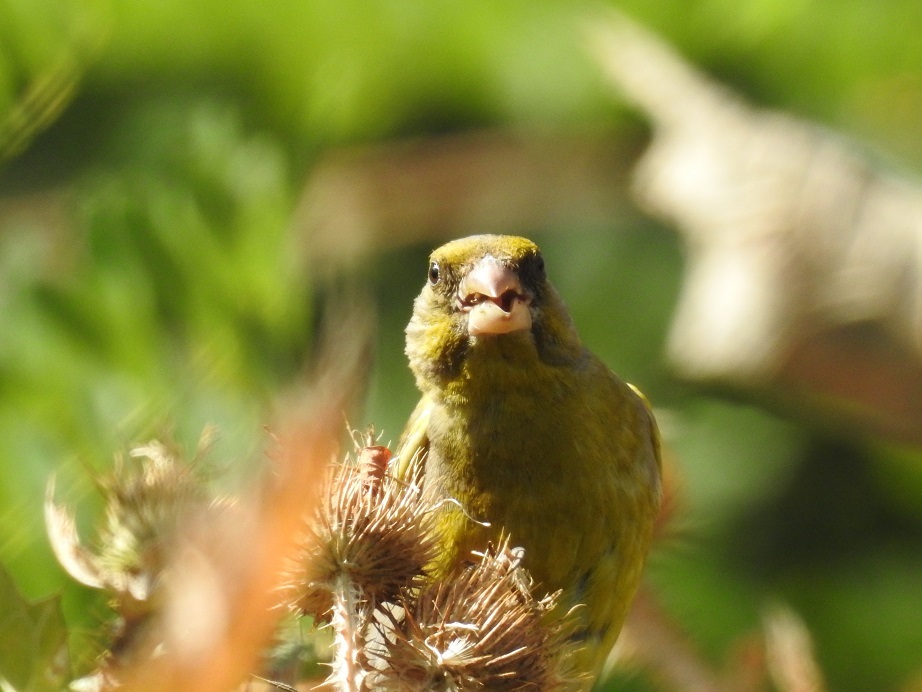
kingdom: Plantae
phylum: Tracheophyta
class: Liliopsida
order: Poales
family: Poaceae
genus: Chloris
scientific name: Chloris chloris
